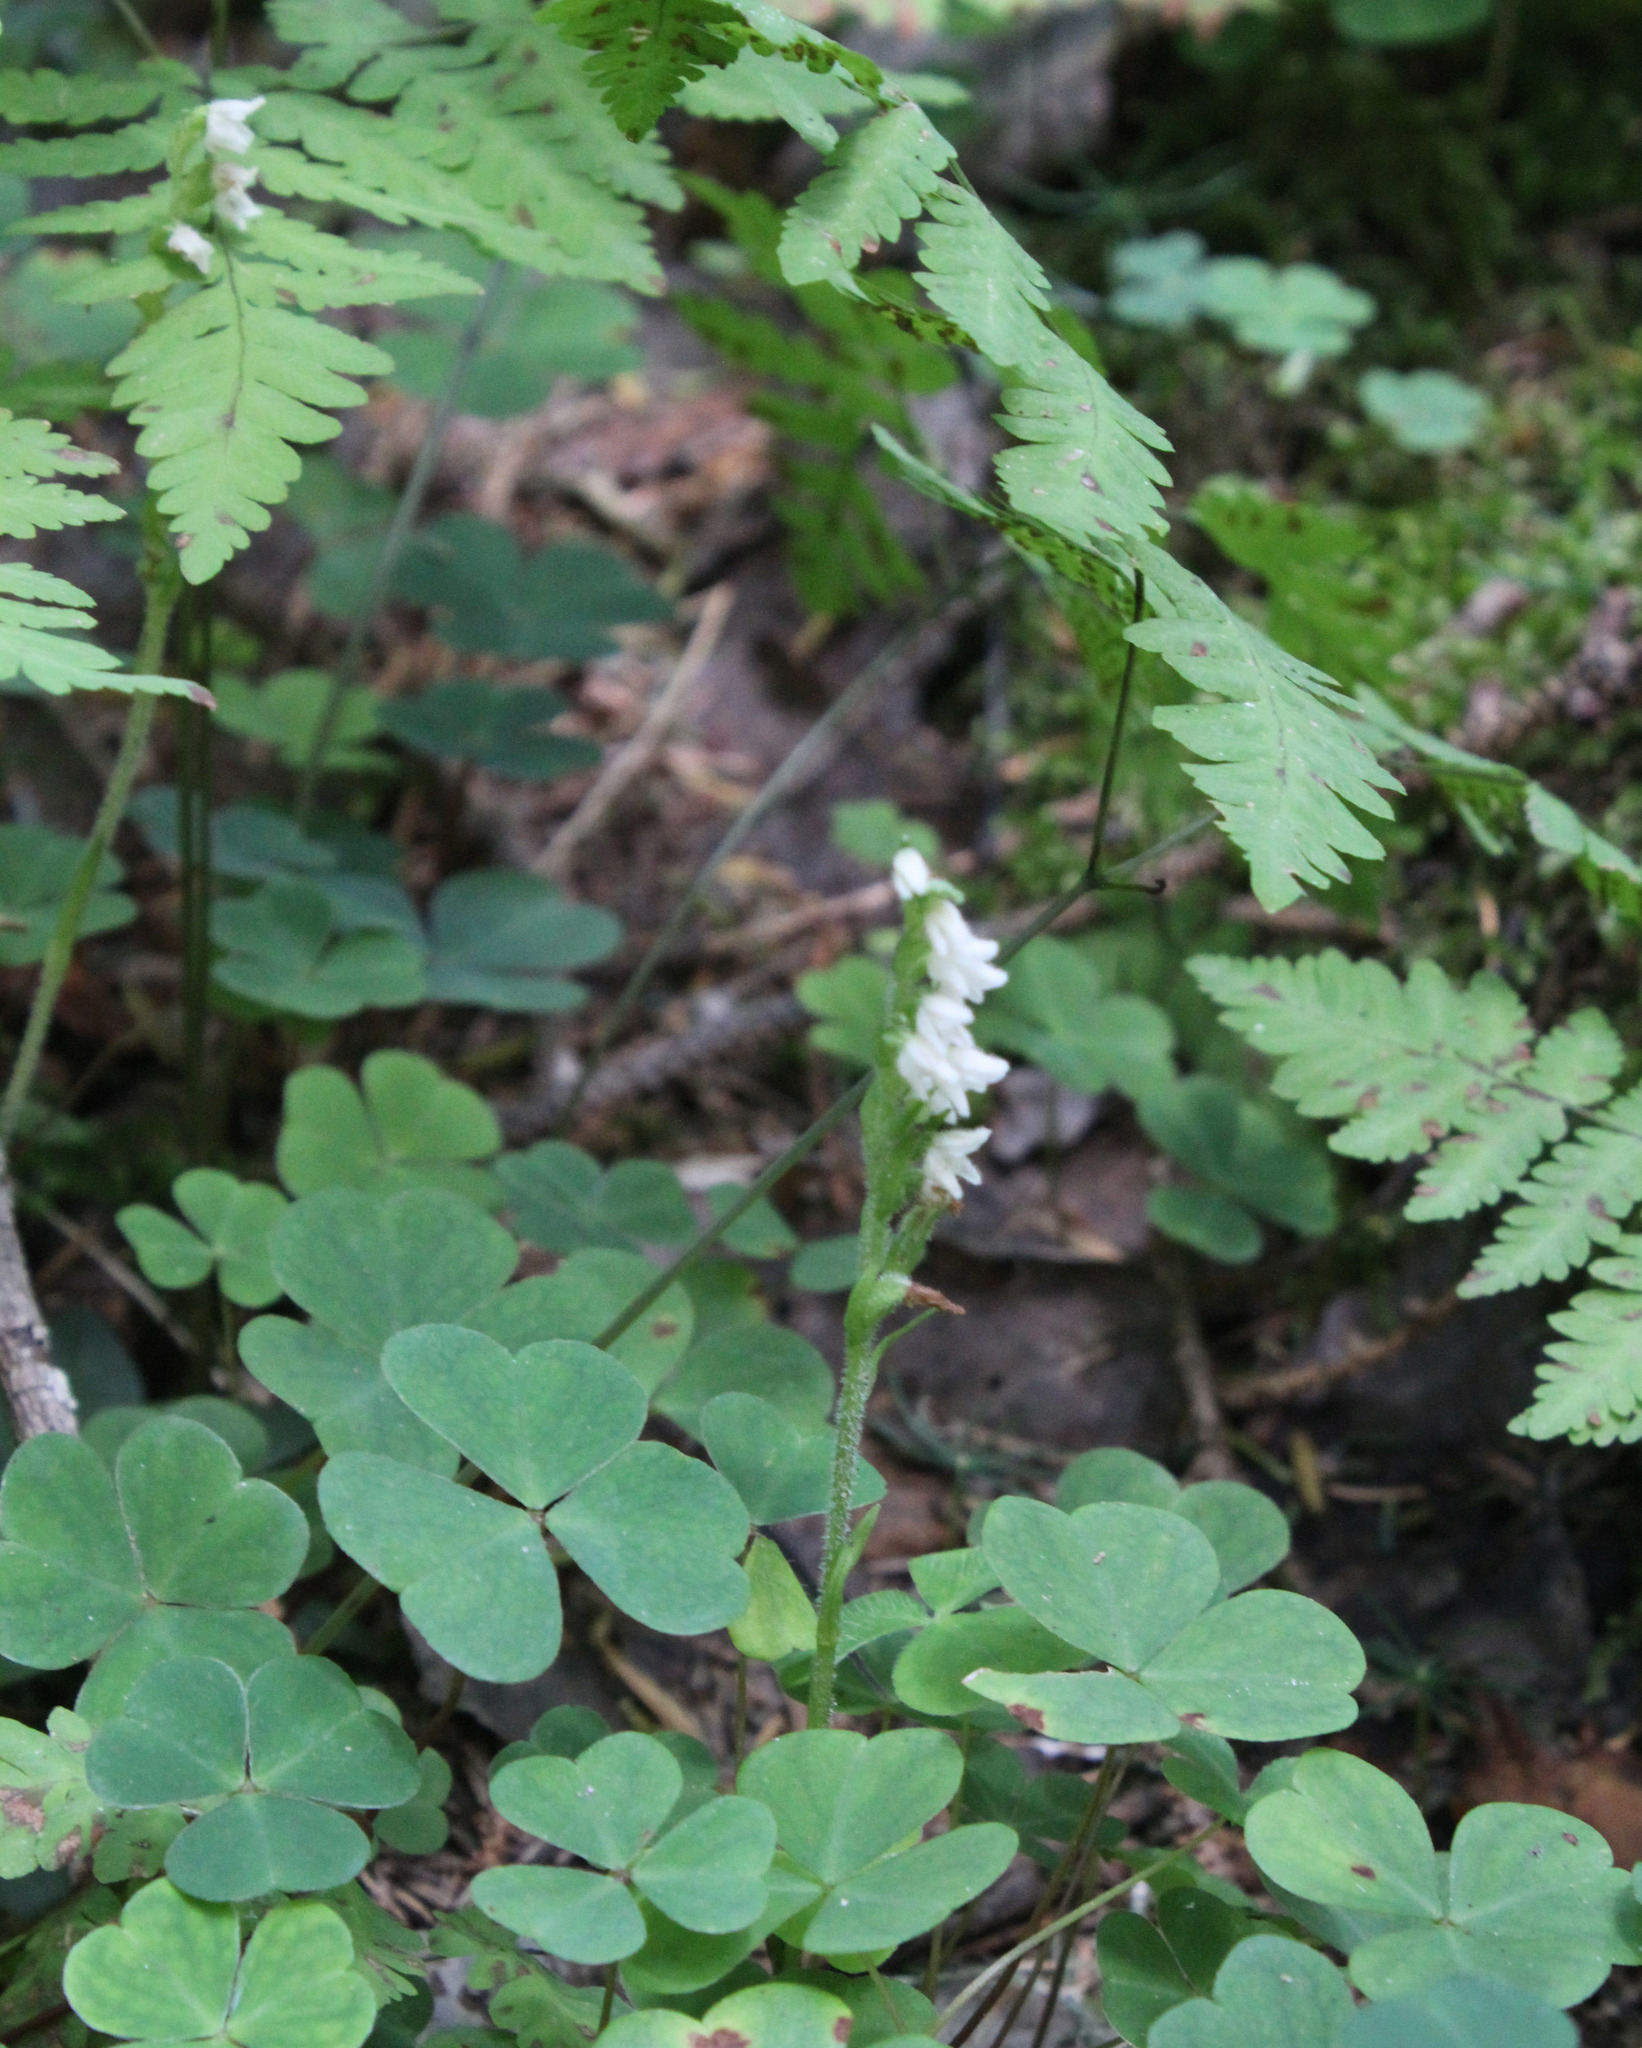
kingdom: Plantae
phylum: Tracheophyta
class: Liliopsida
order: Asparagales
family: Orchidaceae
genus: Goodyera
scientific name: Goodyera repens
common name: Creeping lady's-tresses
